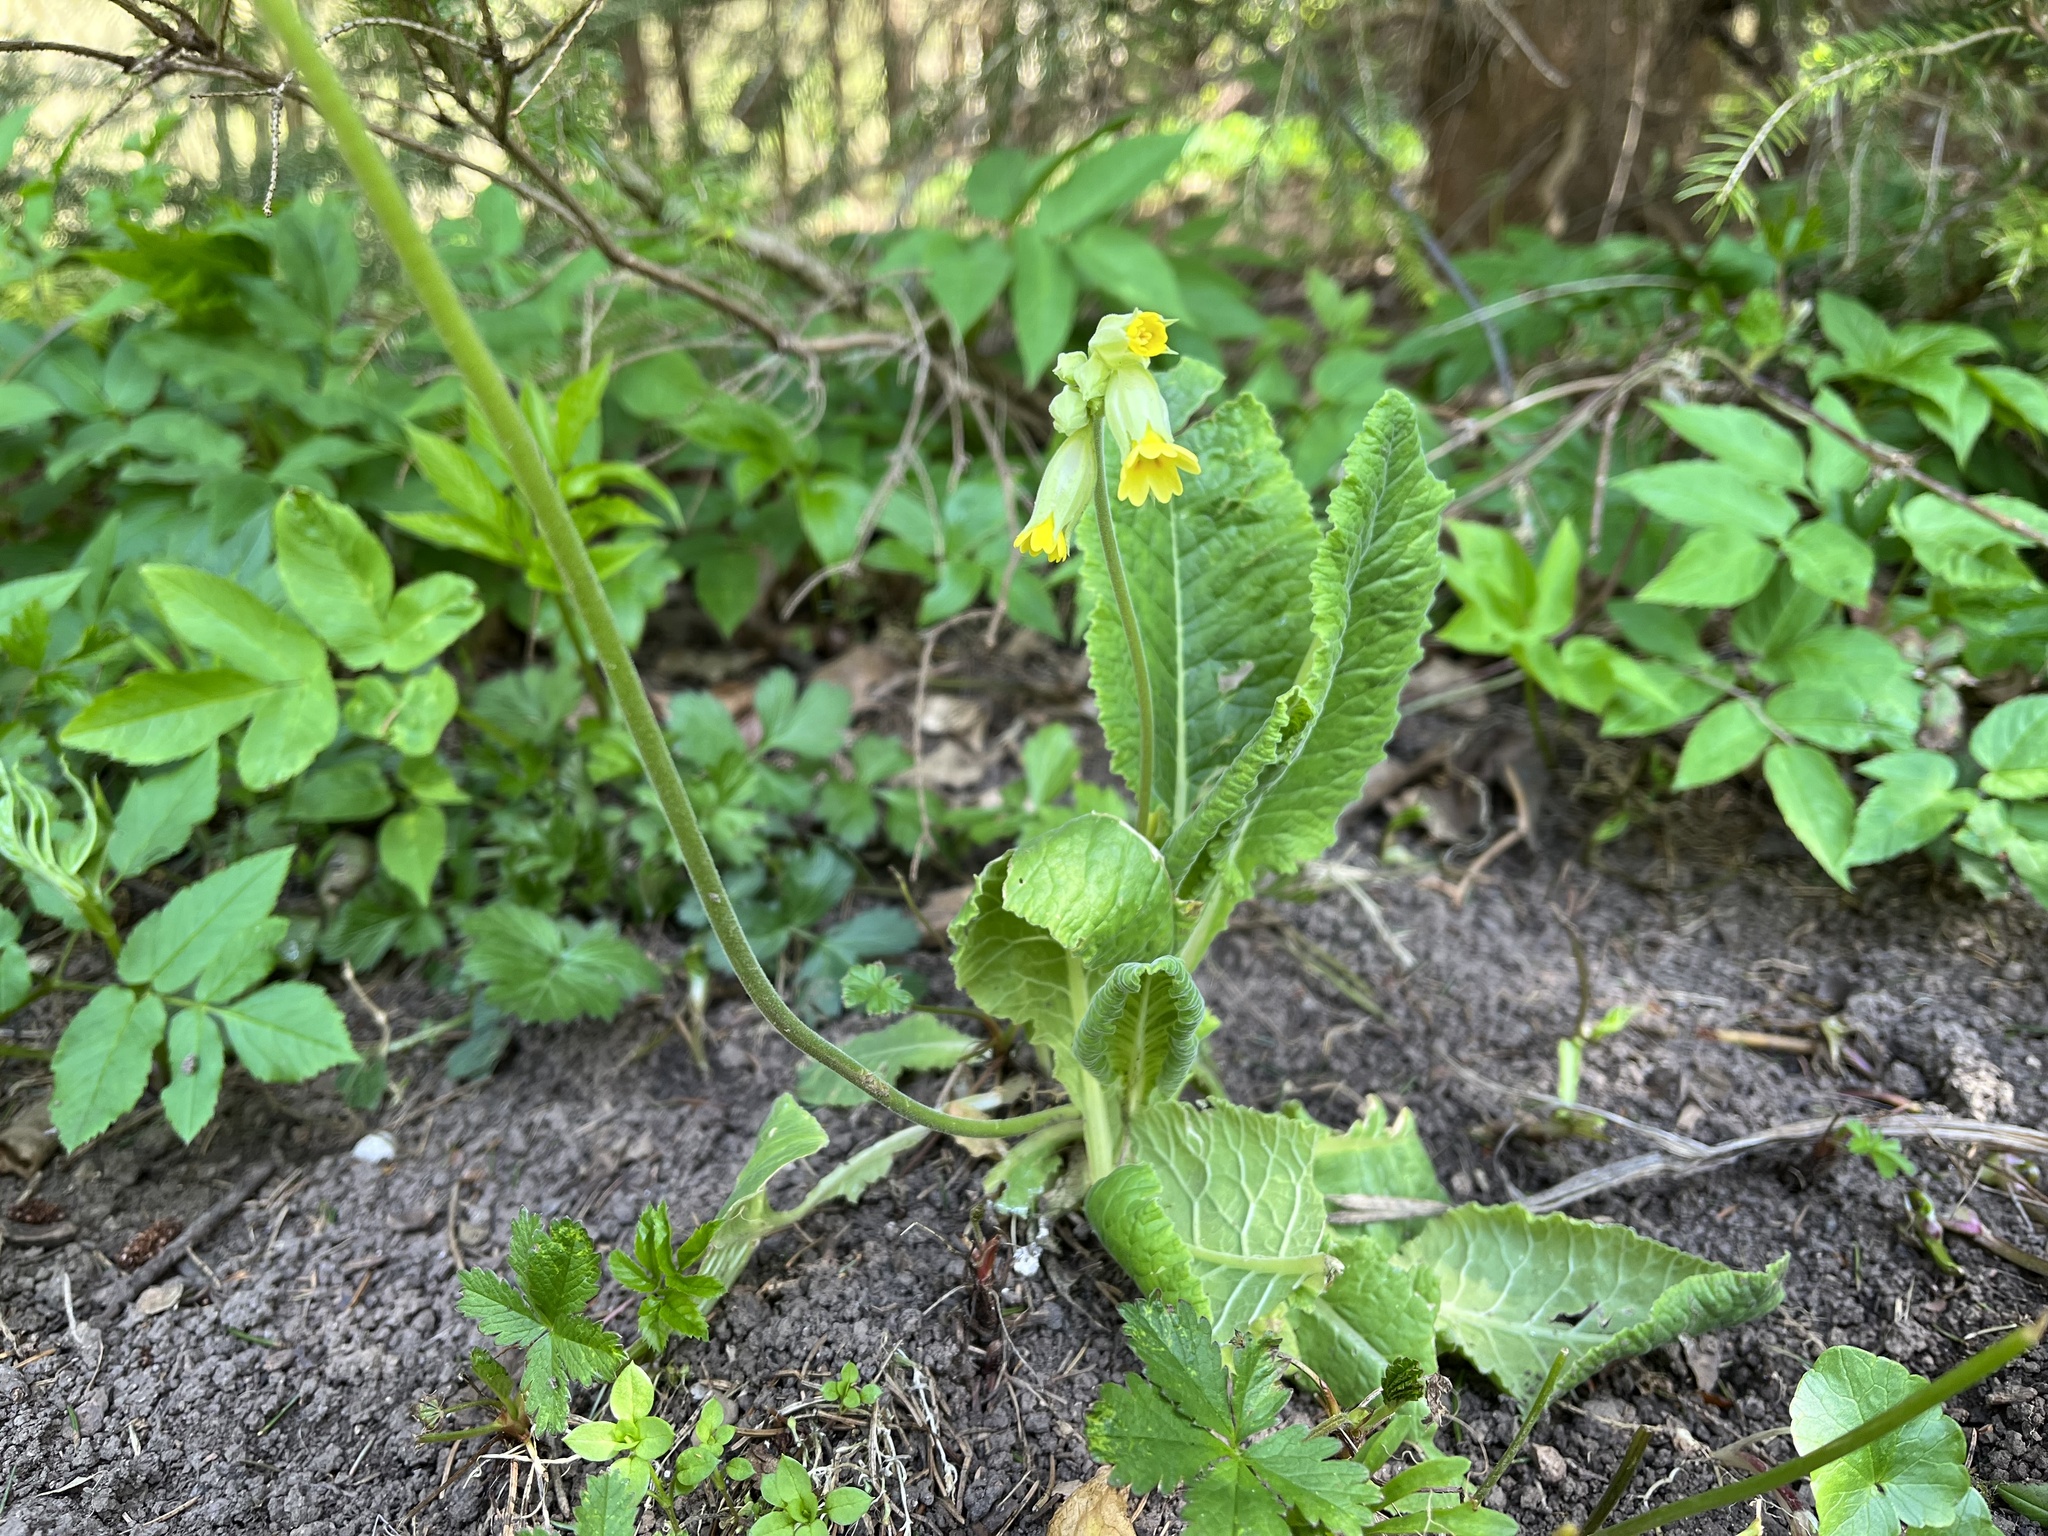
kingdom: Plantae
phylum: Tracheophyta
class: Magnoliopsida
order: Ericales
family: Primulaceae
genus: Primula
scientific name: Primula veris
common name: Cowslip
